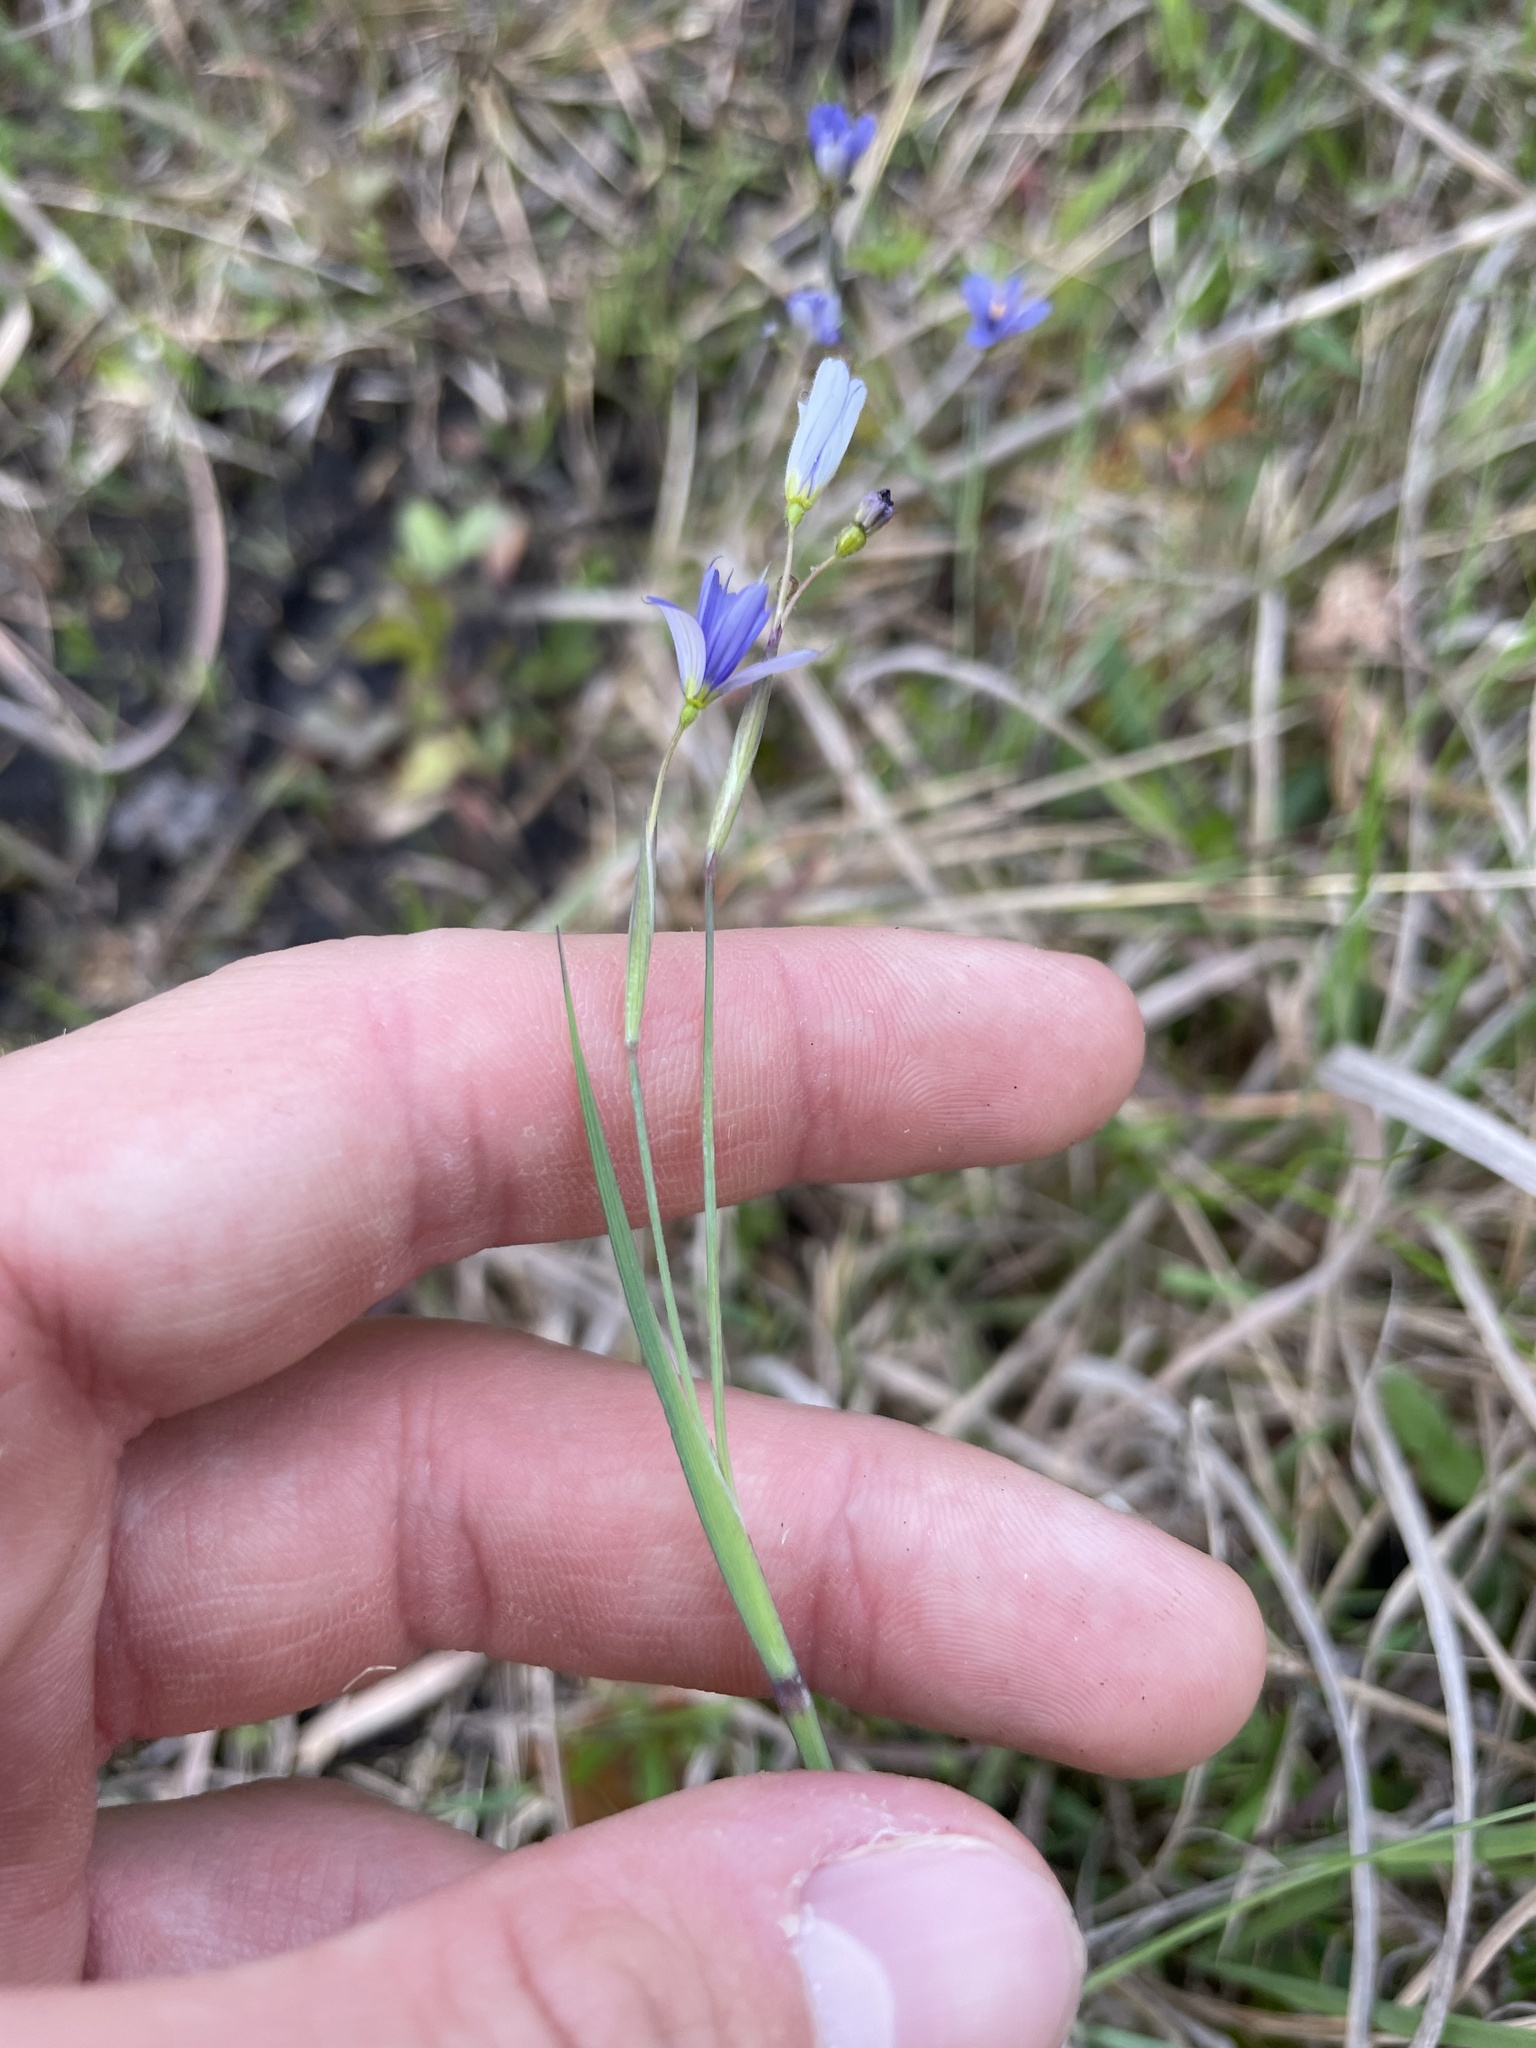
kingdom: Plantae
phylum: Tracheophyta
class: Liliopsida
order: Asparagales
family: Iridaceae
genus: Sisyrinchium
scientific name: Sisyrinchium atlanticum
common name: Eastern blue-eyed-grass
